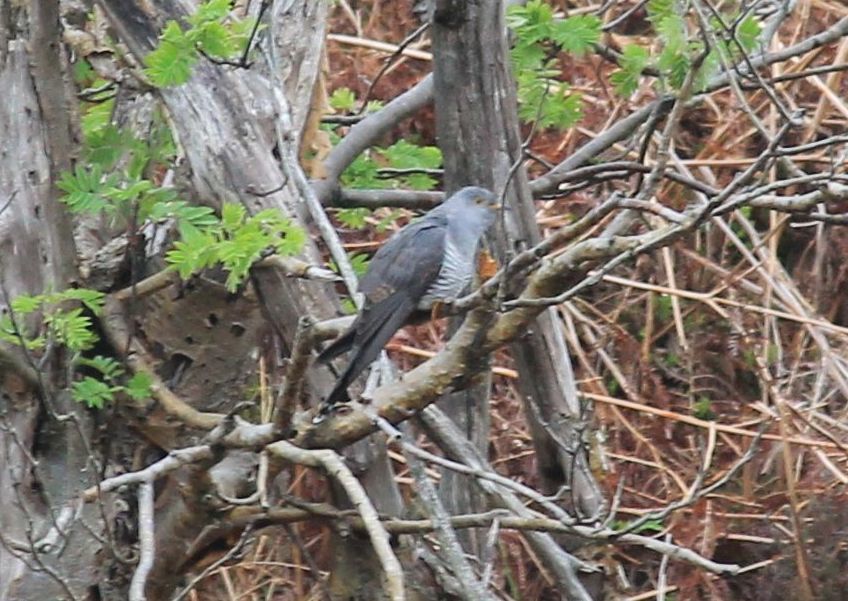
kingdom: Animalia
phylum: Chordata
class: Aves
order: Cuculiformes
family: Cuculidae
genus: Cuculus
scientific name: Cuculus canorus
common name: Common cuckoo
